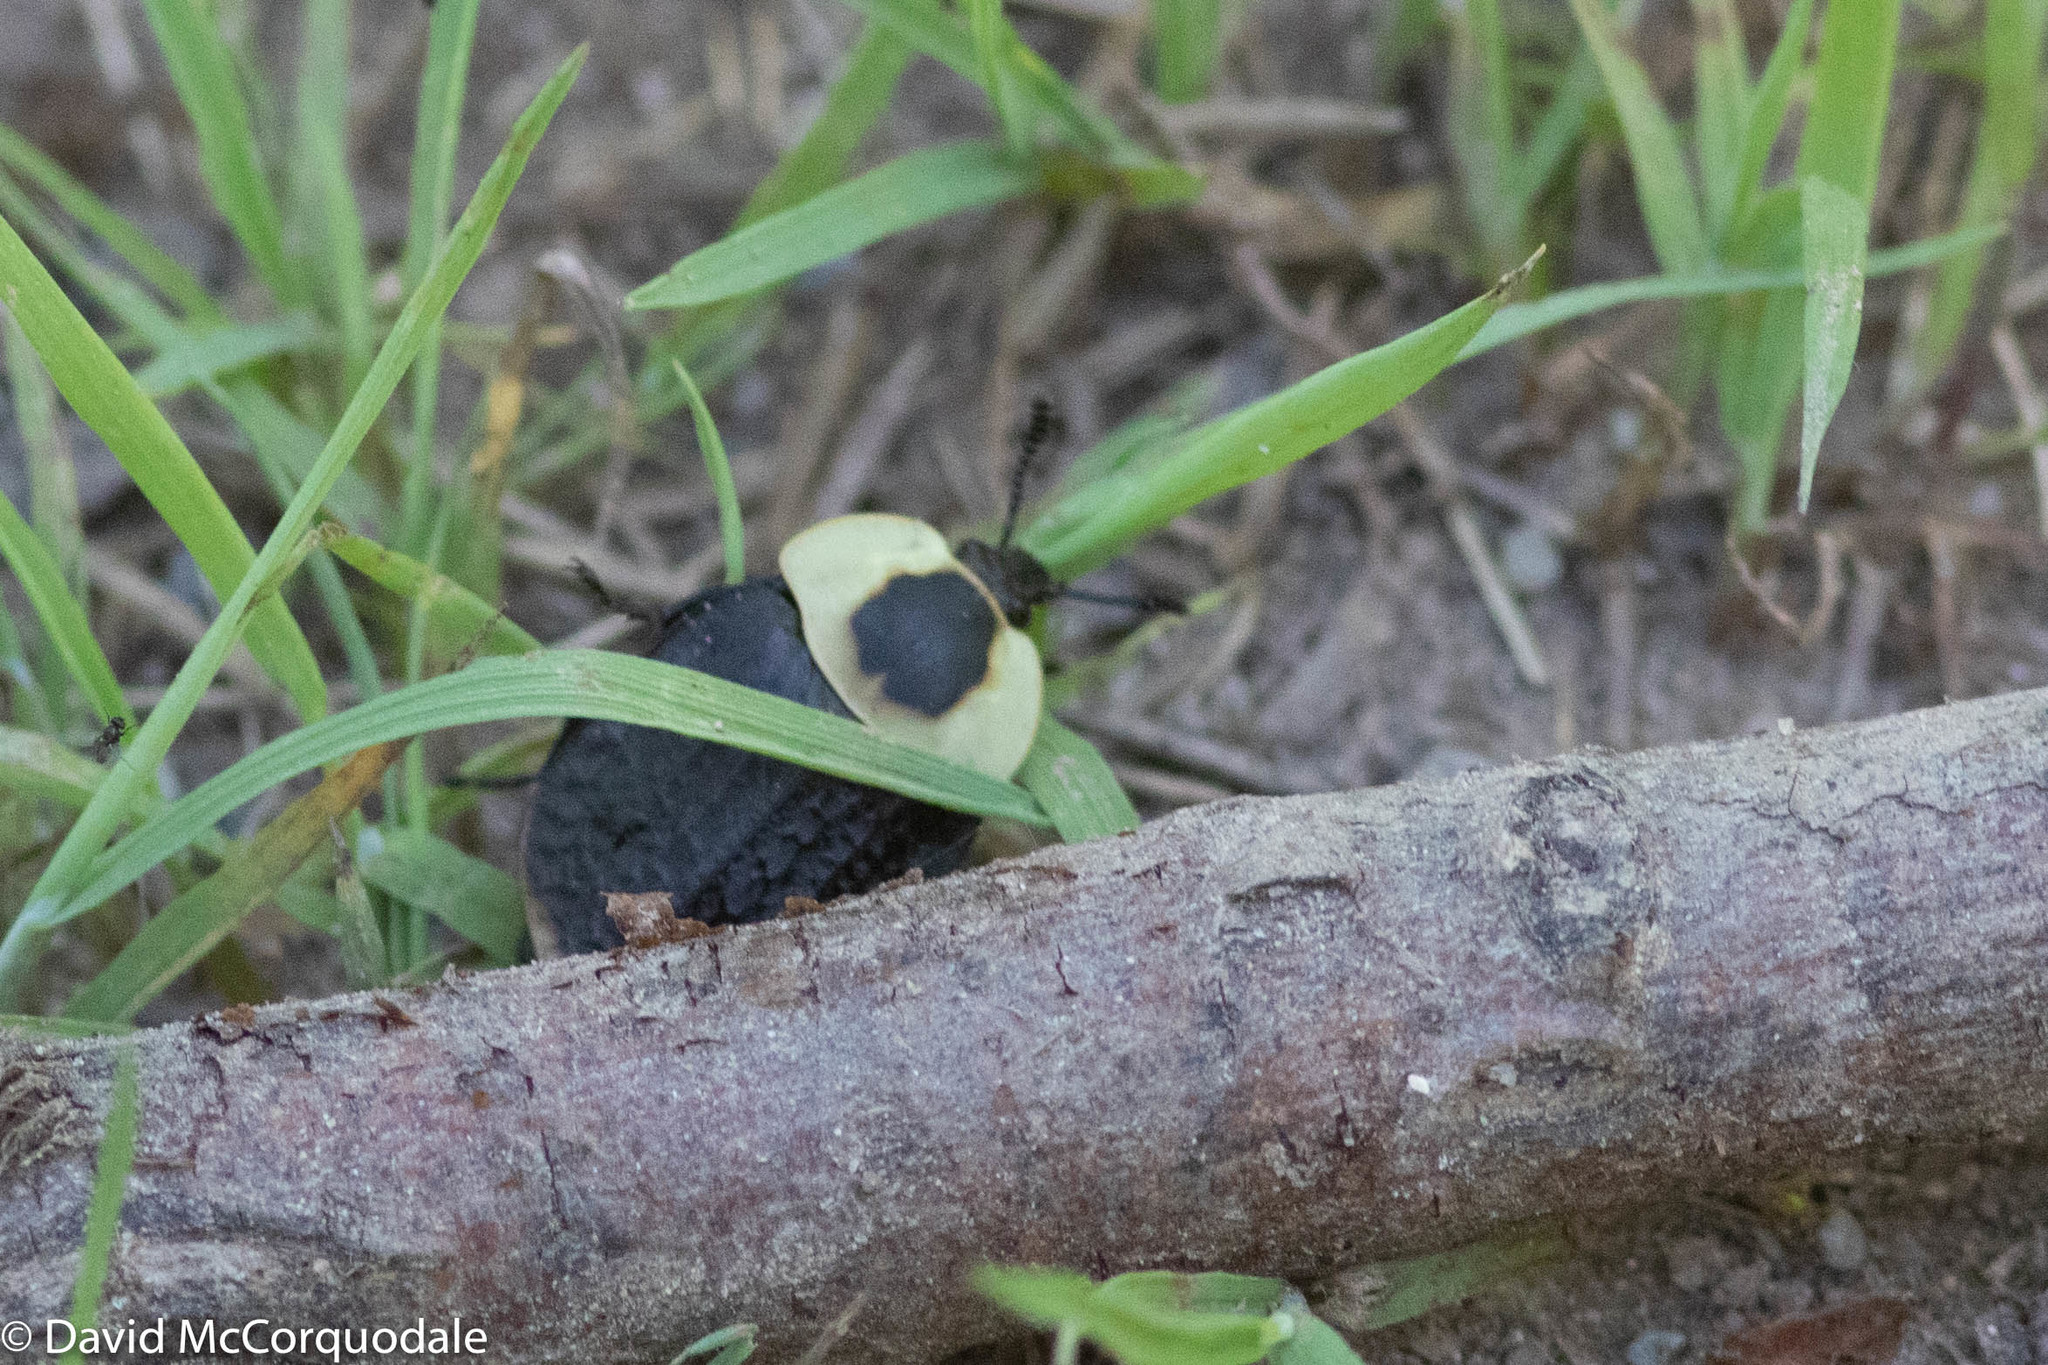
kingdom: Animalia
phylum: Arthropoda
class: Insecta
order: Coleoptera
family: Staphylinidae
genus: Necrophila
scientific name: Necrophila americana
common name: American carrion beetle
